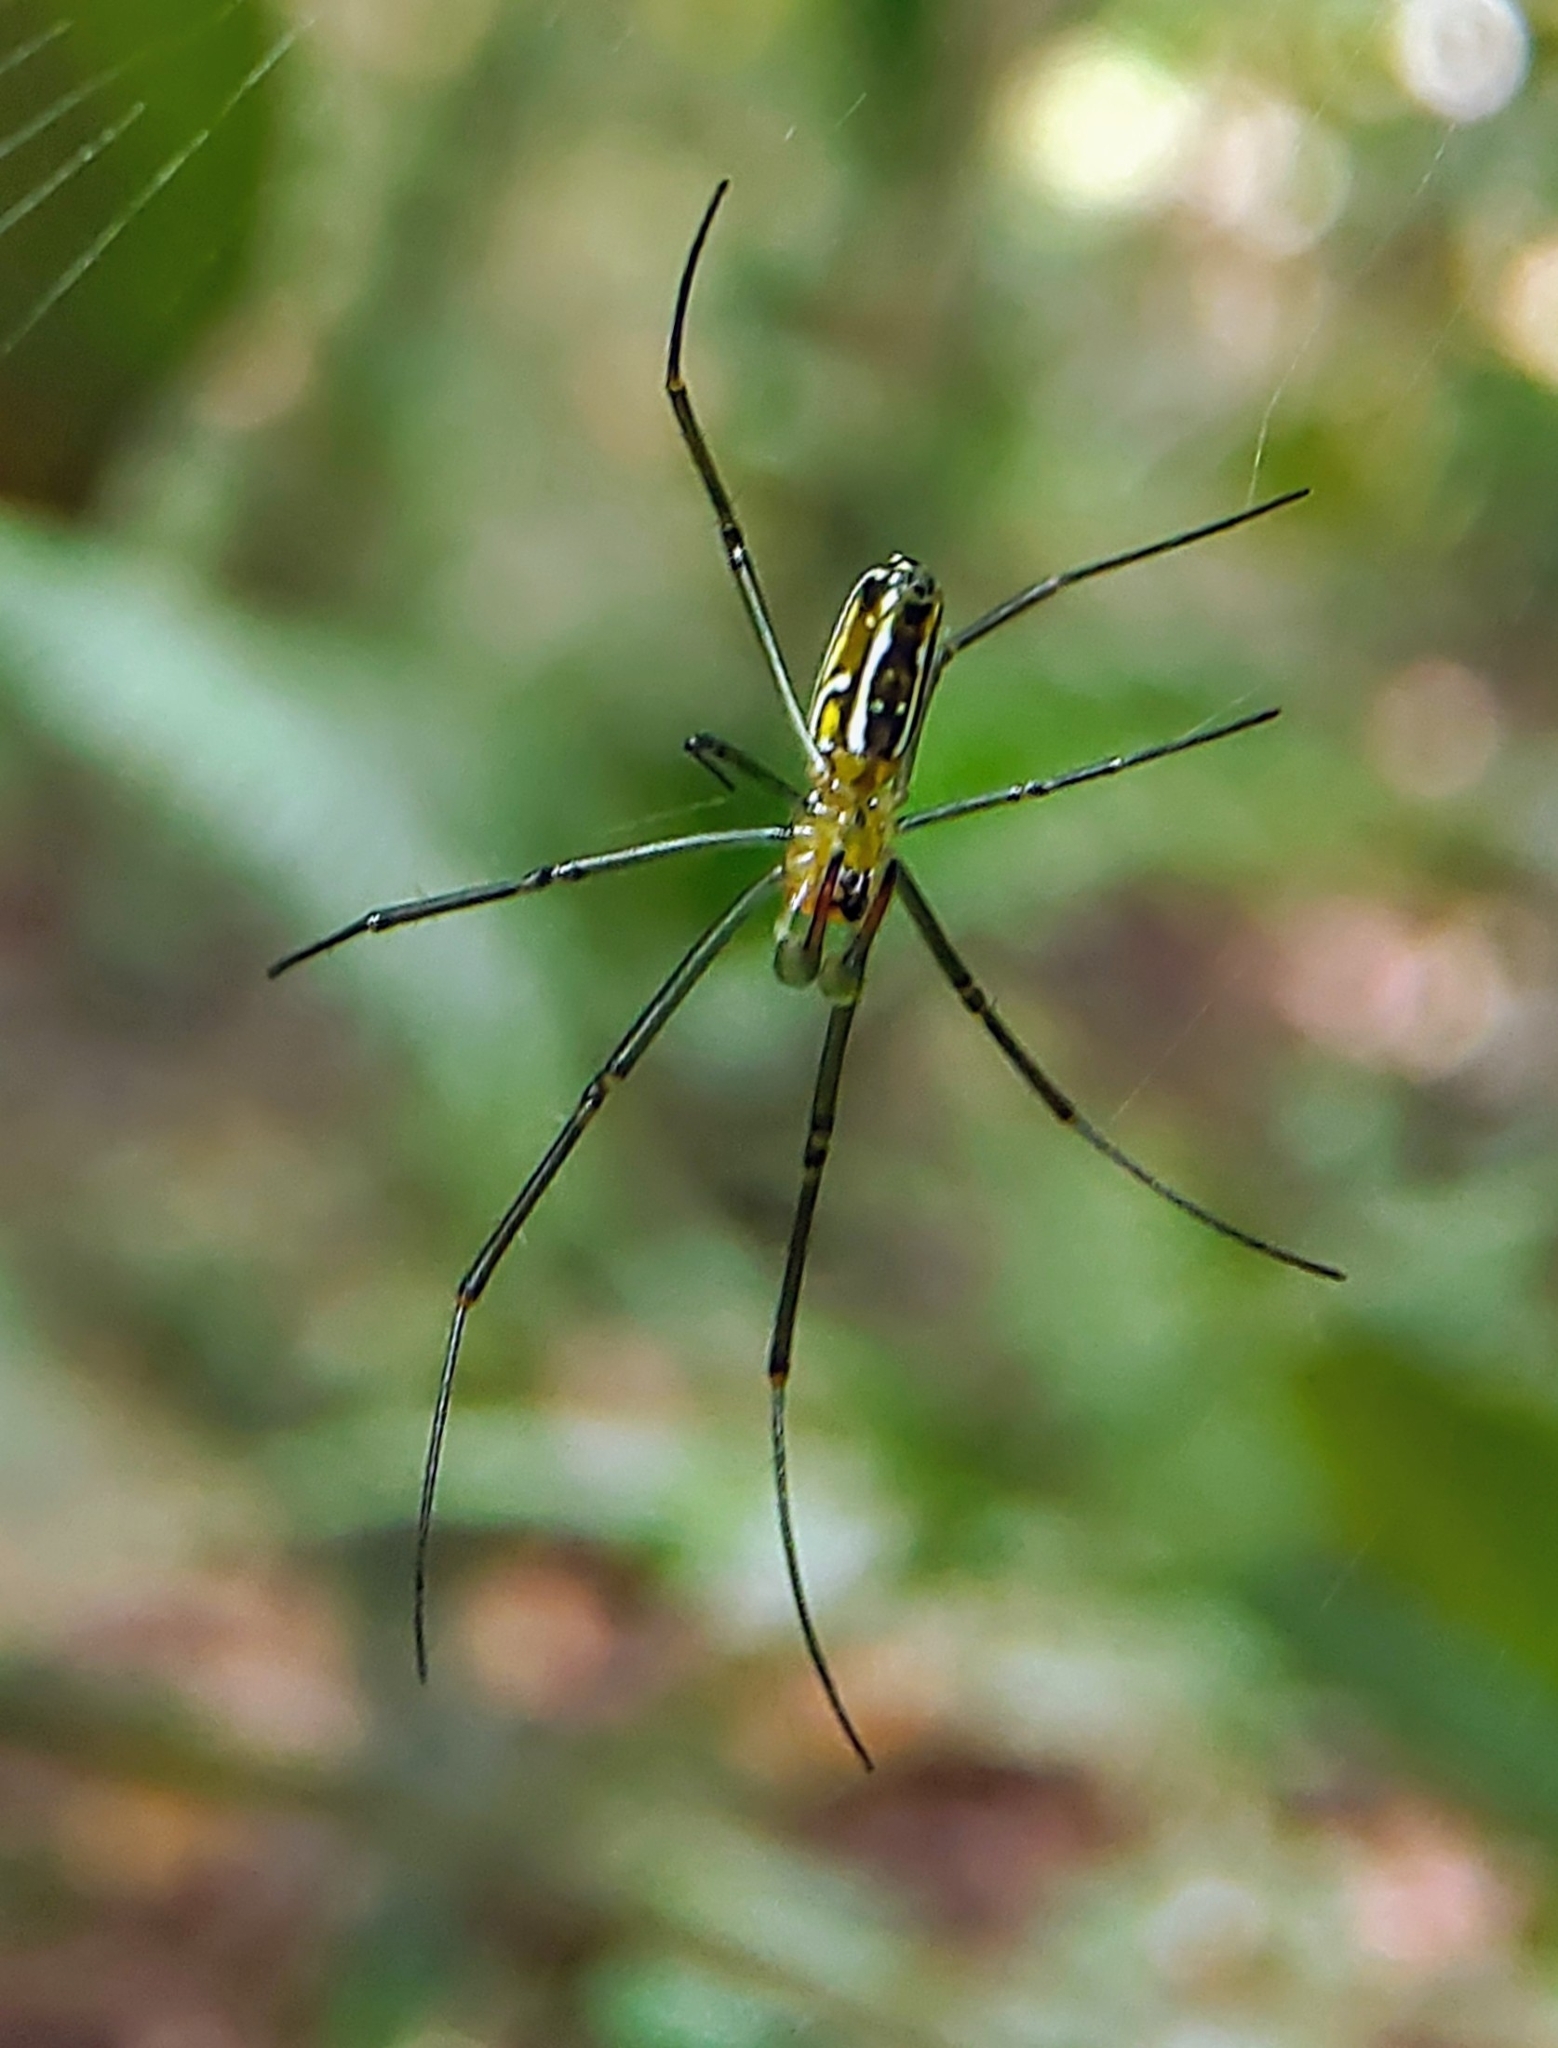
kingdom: Animalia
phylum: Arthropoda
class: Arachnida
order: Araneae
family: Araneidae
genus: Nephila
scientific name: Nephila pilipes
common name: Giant golden orb weaver
